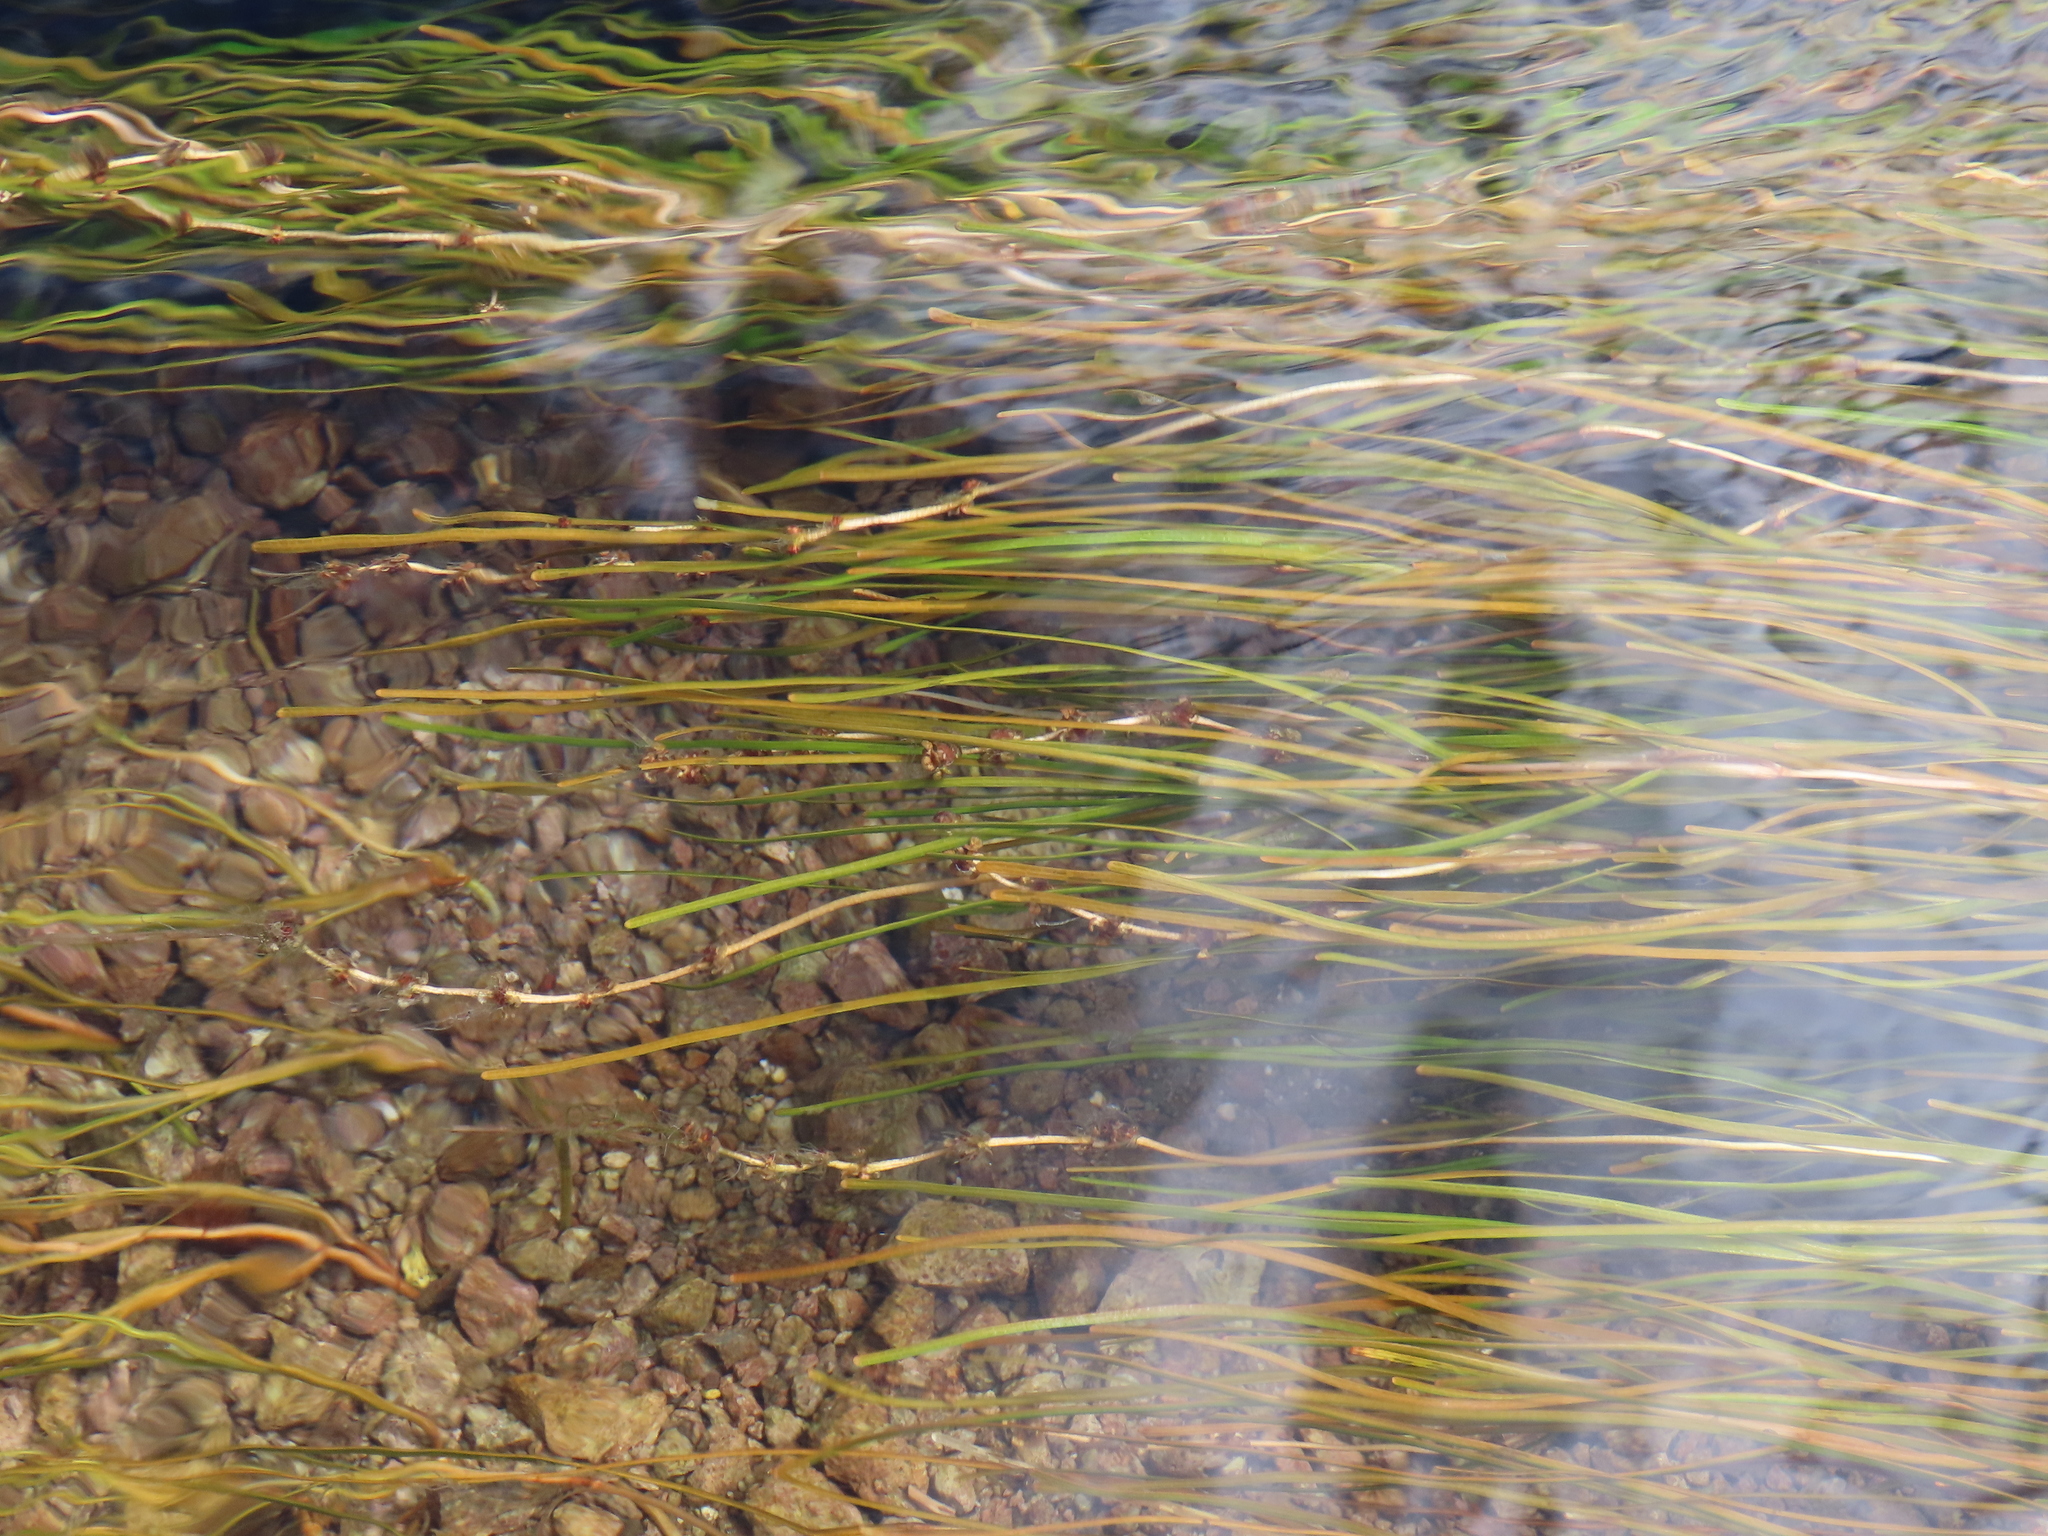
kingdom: Plantae
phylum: Tracheophyta
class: Liliopsida
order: Alismatales
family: Potamogetonaceae
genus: Stuckenia
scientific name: Stuckenia filiformis
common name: Alpine thread-leaved pondweed
